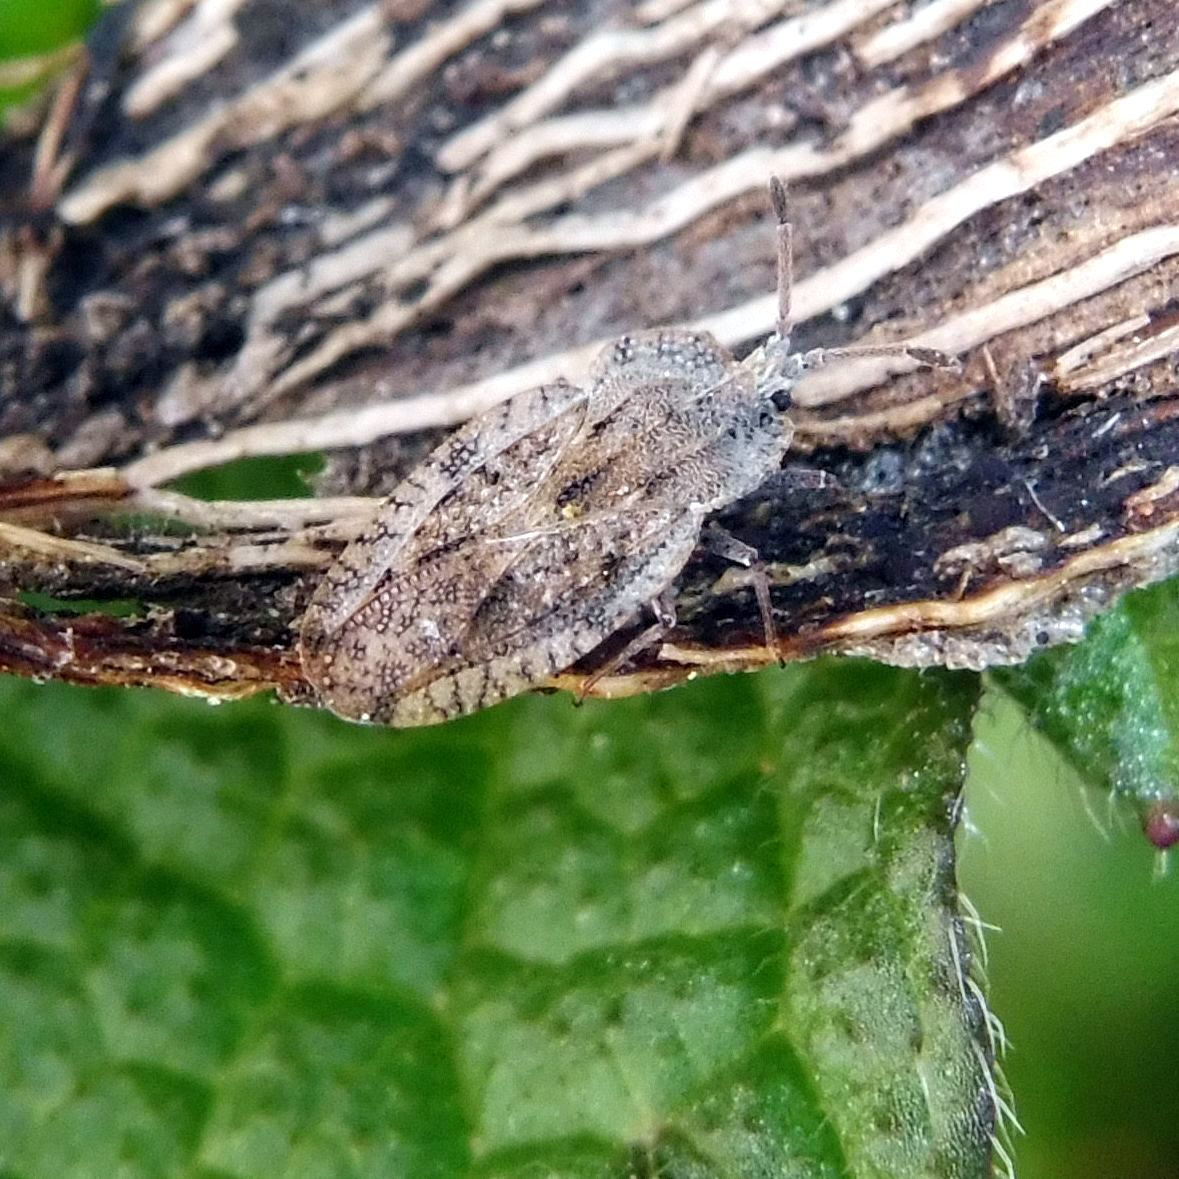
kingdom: Animalia
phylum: Arthropoda
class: Insecta
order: Hemiptera
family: Tingidae
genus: Tingis
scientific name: Tingis ampliata
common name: Creeping thistle lacebug
